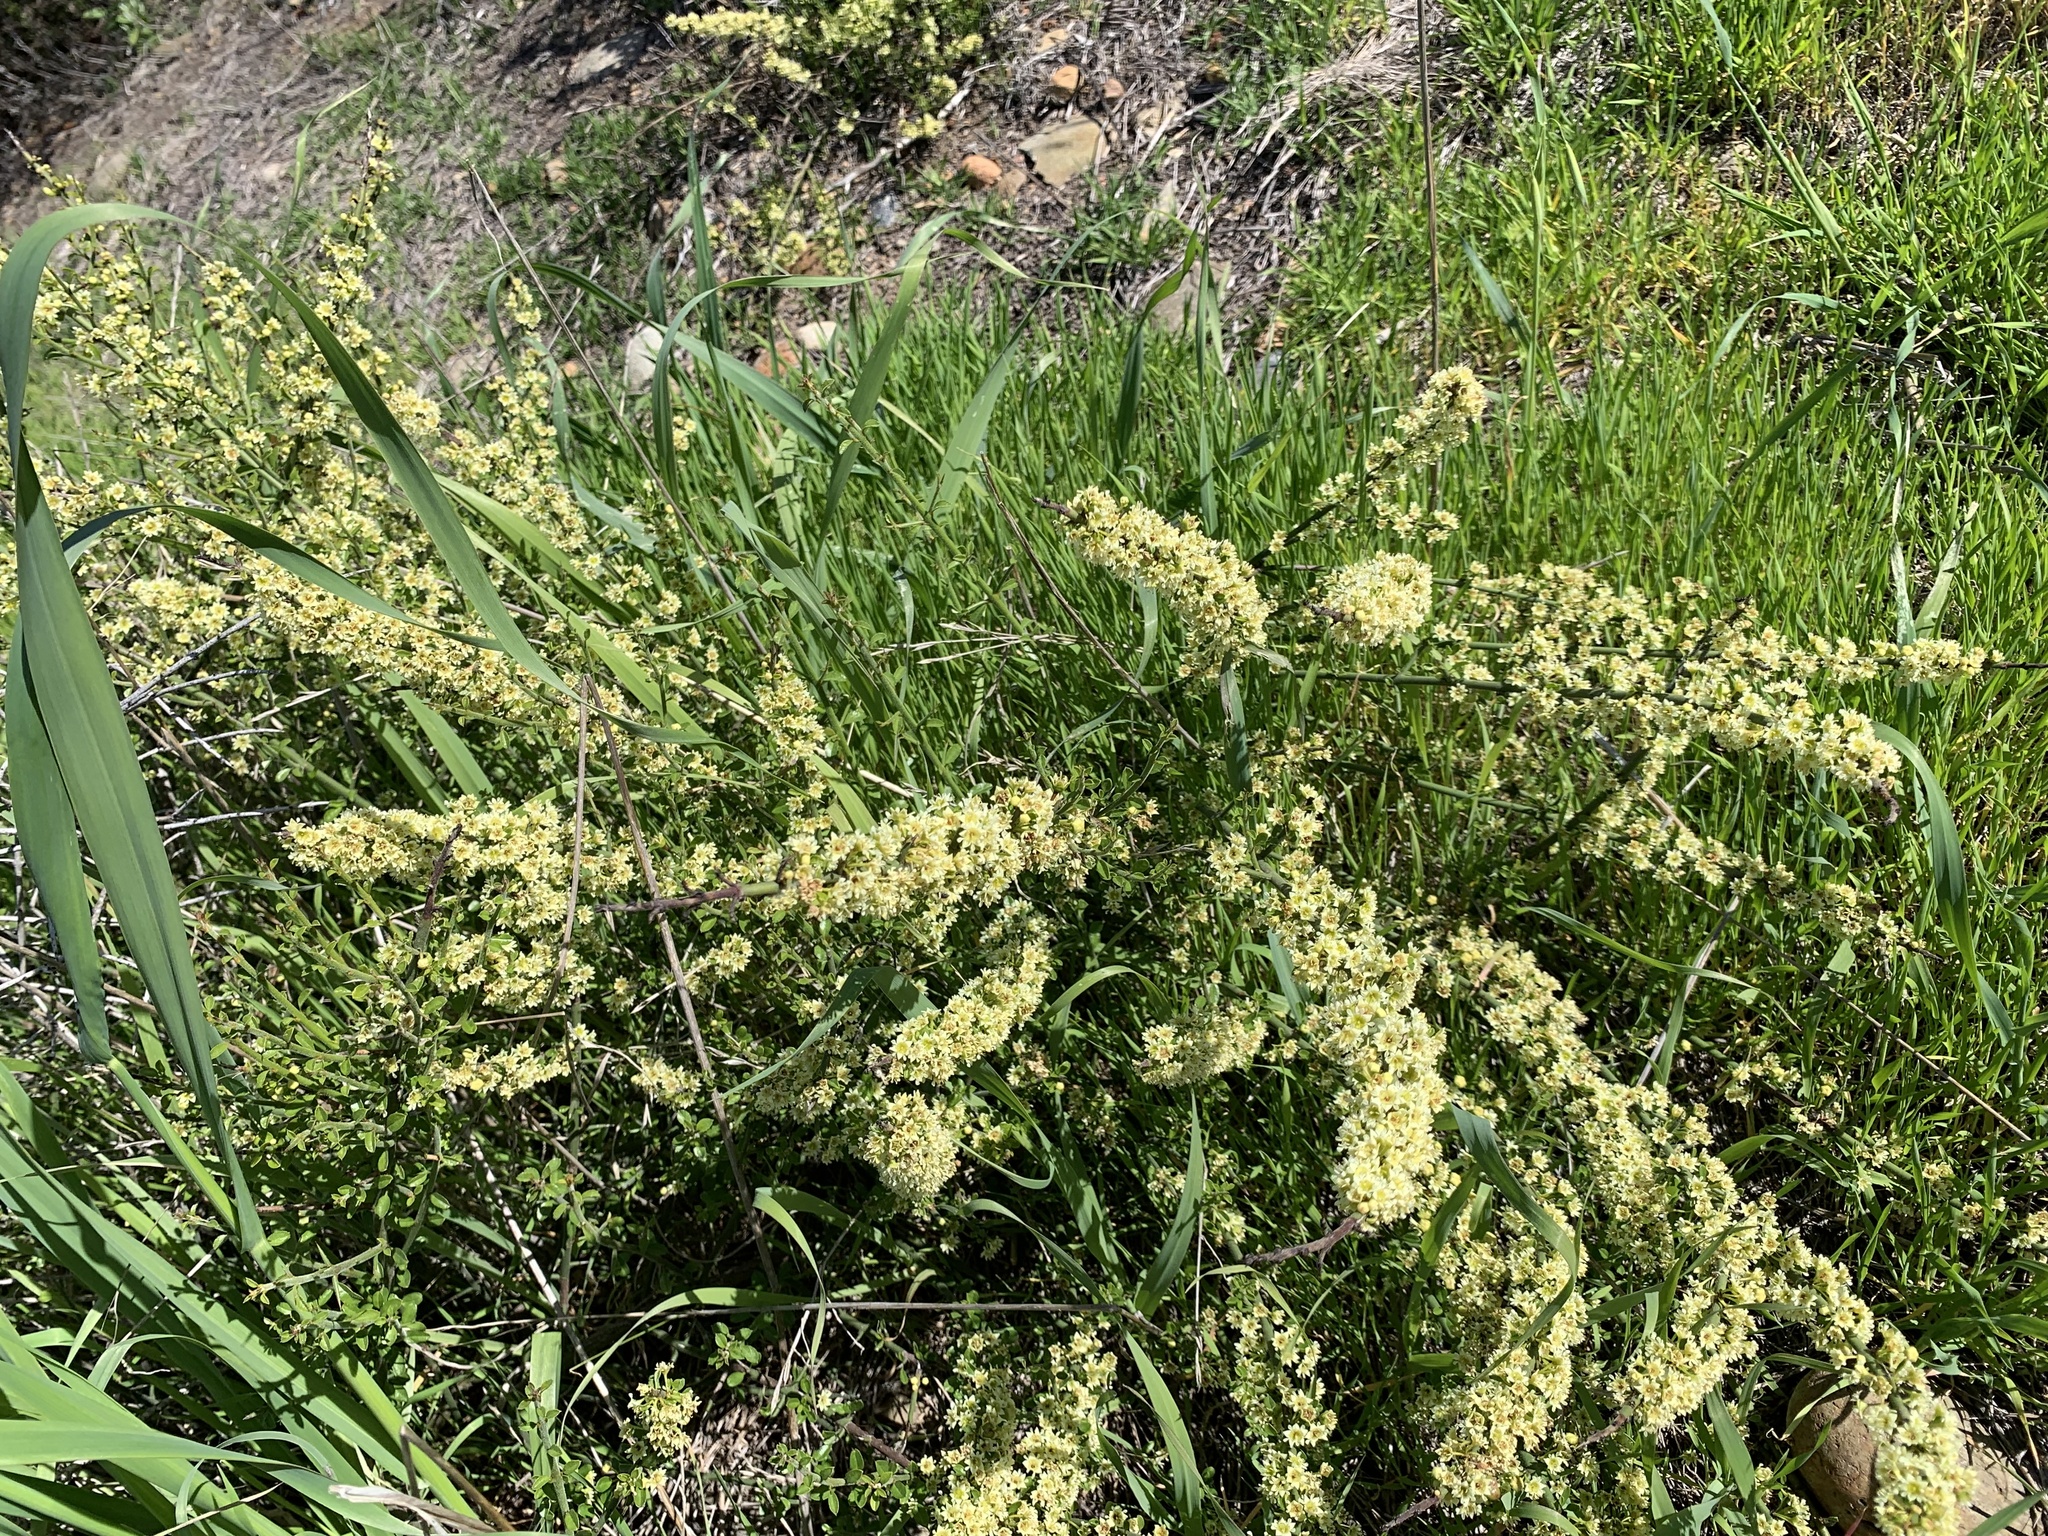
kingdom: Plantae
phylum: Tracheophyta
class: Magnoliopsida
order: Rosales
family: Rhamnaceae
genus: Adolphia
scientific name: Adolphia californica
